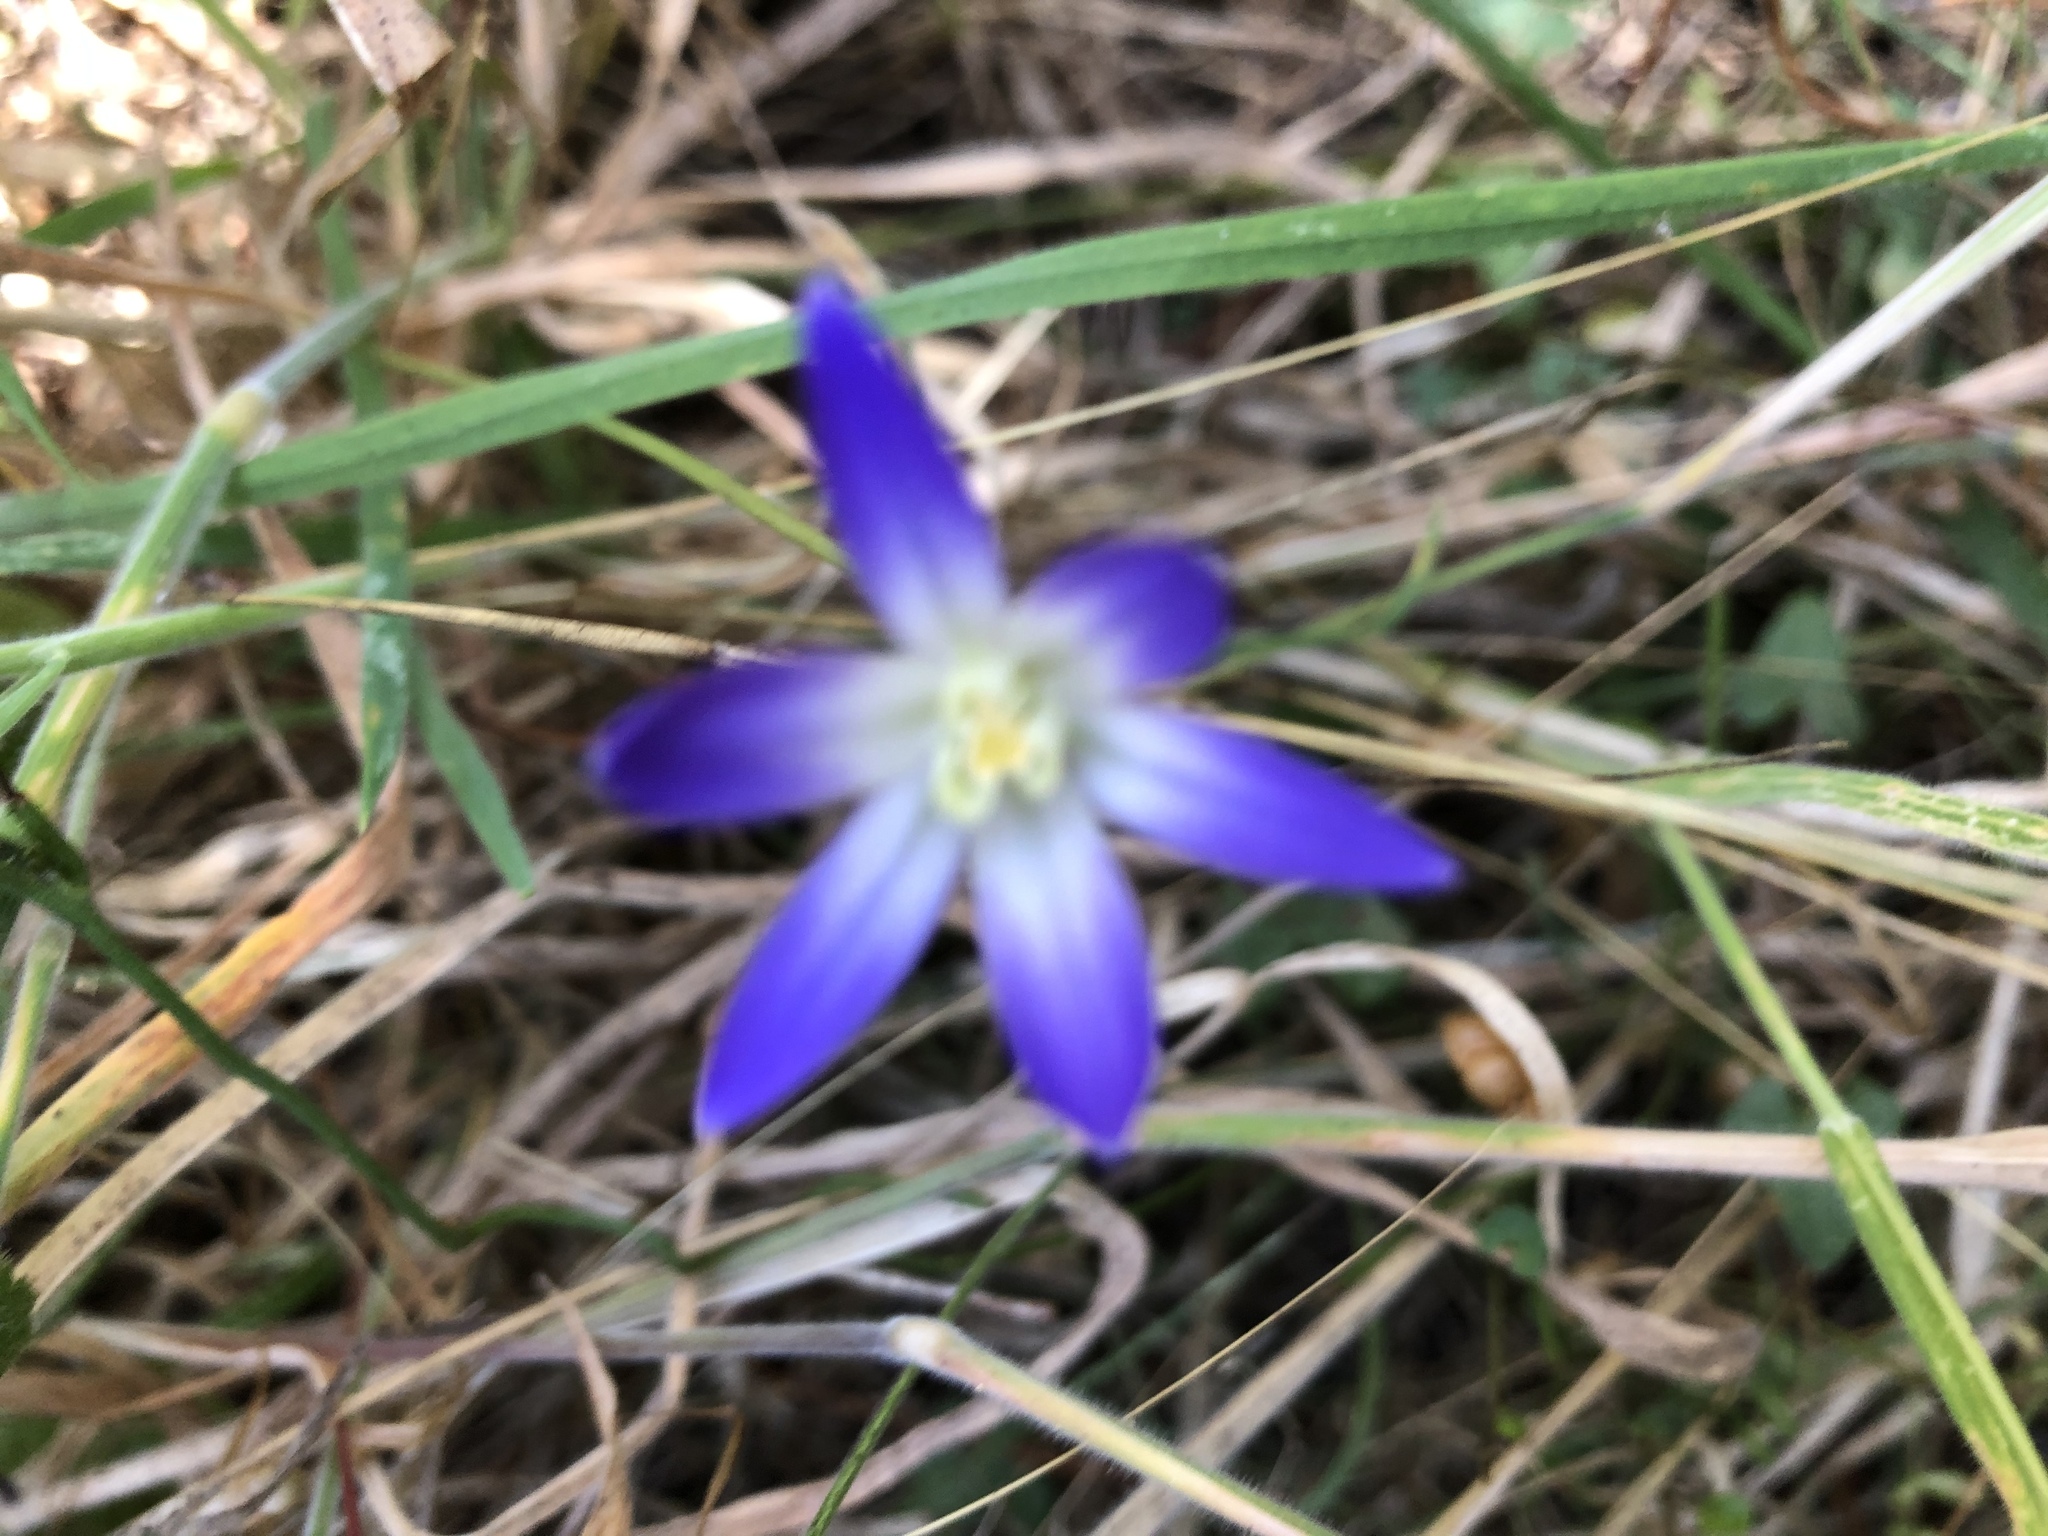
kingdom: Plantae
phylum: Tracheophyta
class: Liliopsida
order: Asparagales
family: Asparagaceae
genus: Brodiaea
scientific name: Brodiaea terrestris
